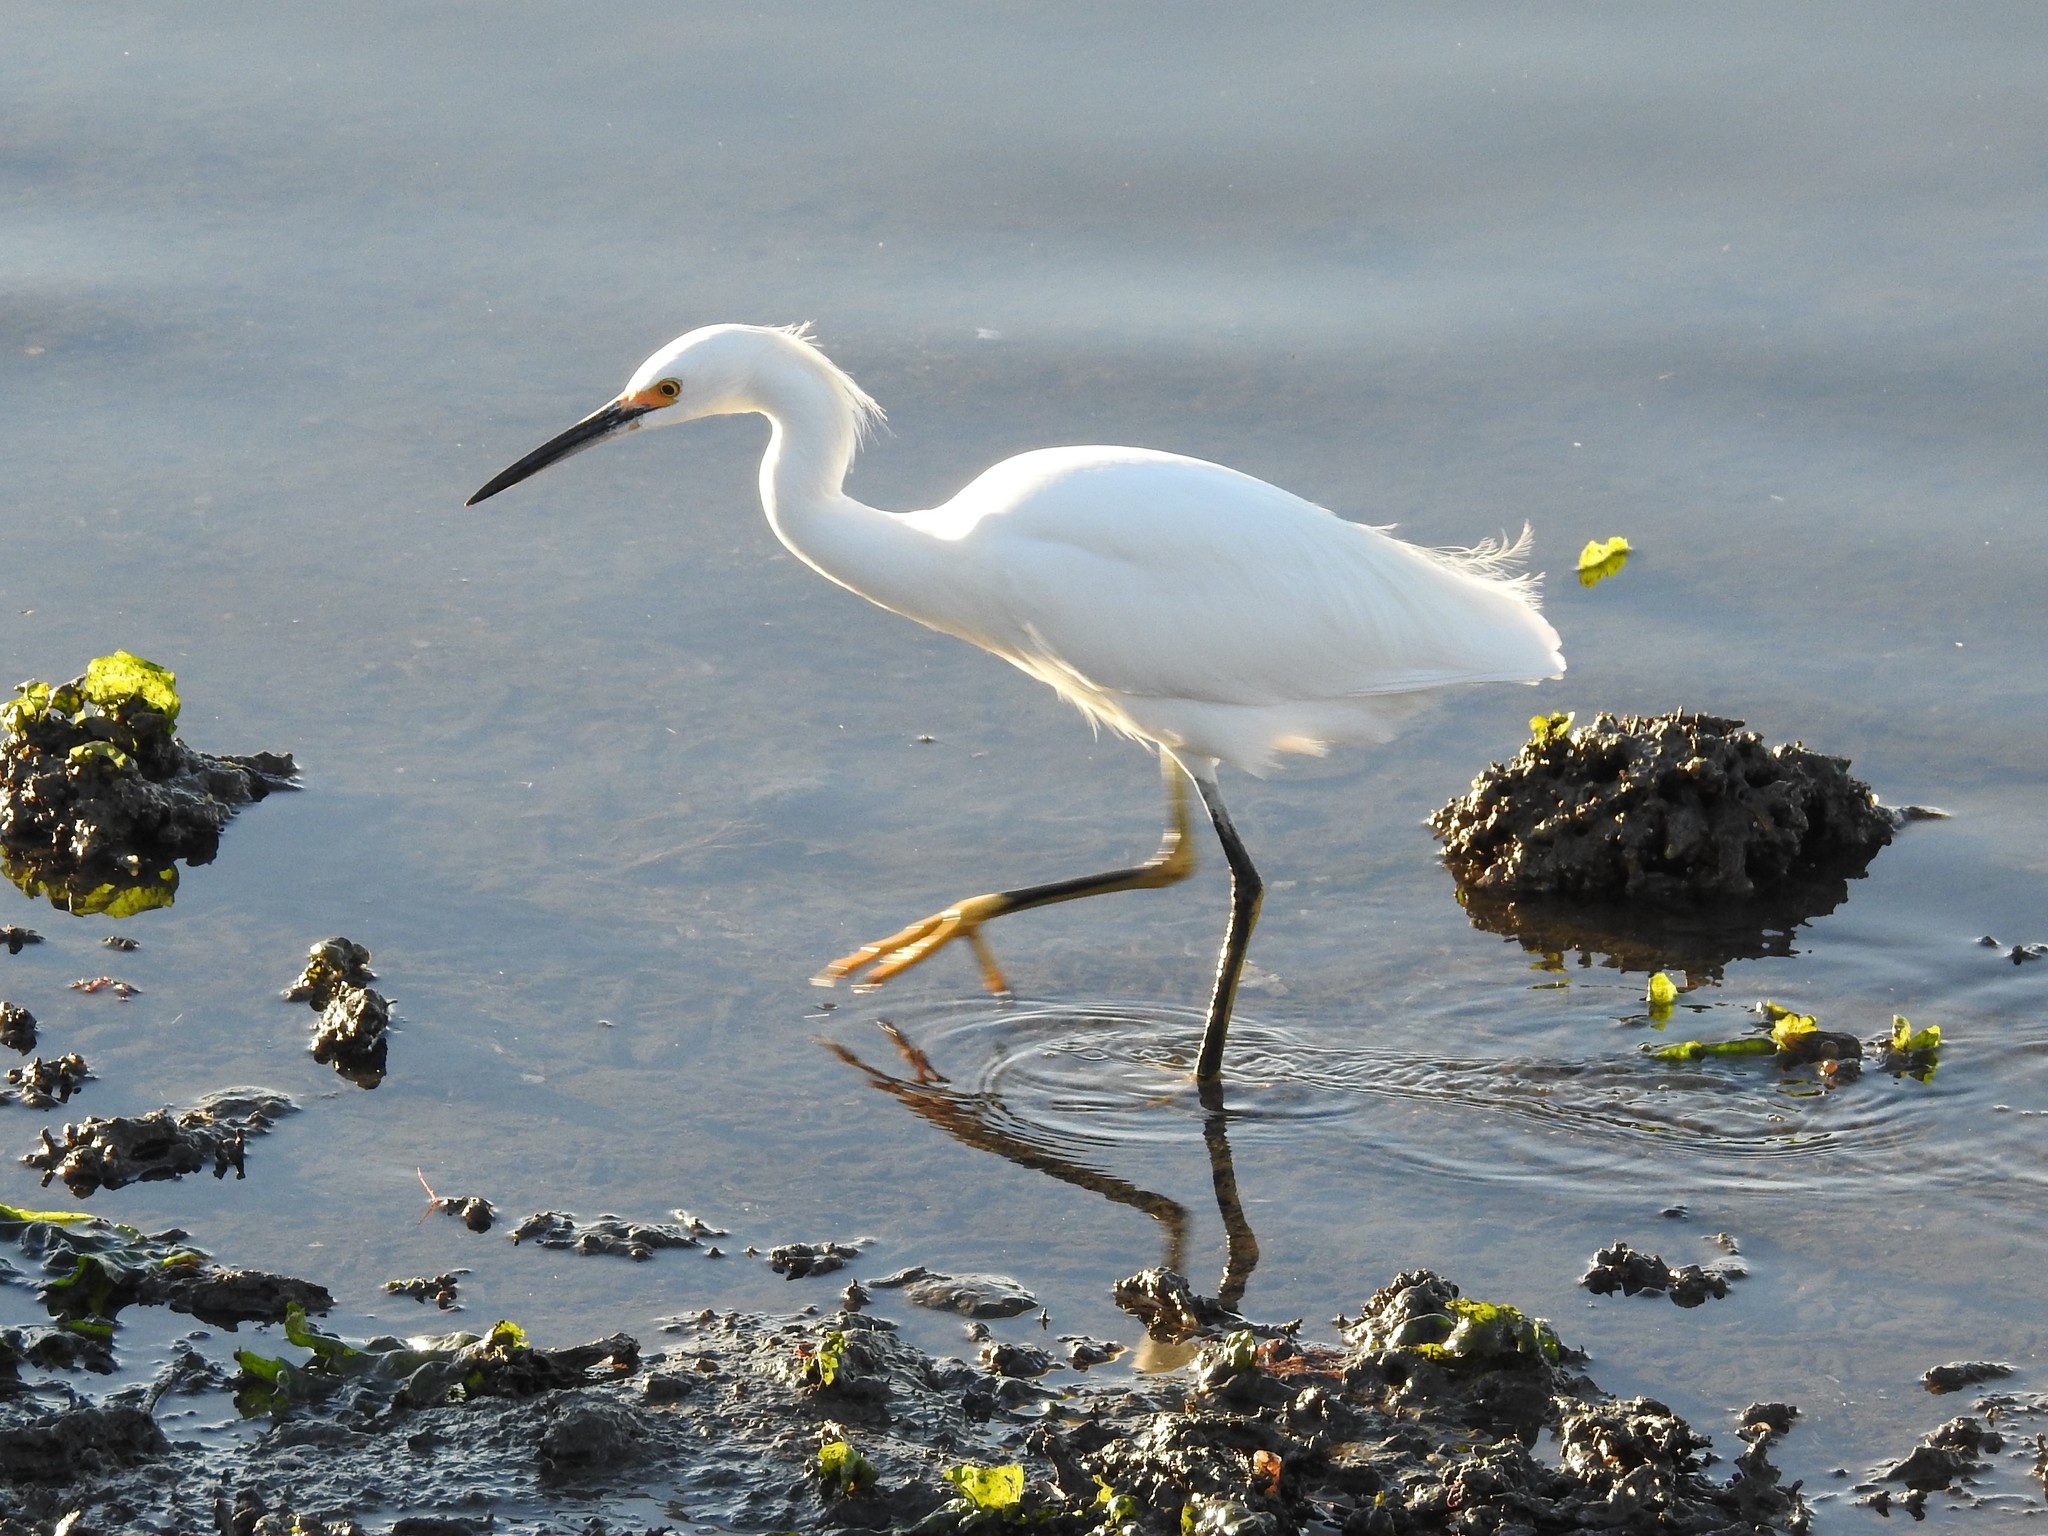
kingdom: Animalia
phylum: Chordata
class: Aves
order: Pelecaniformes
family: Ardeidae
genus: Egretta
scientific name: Egretta thula
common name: Snowy egret
